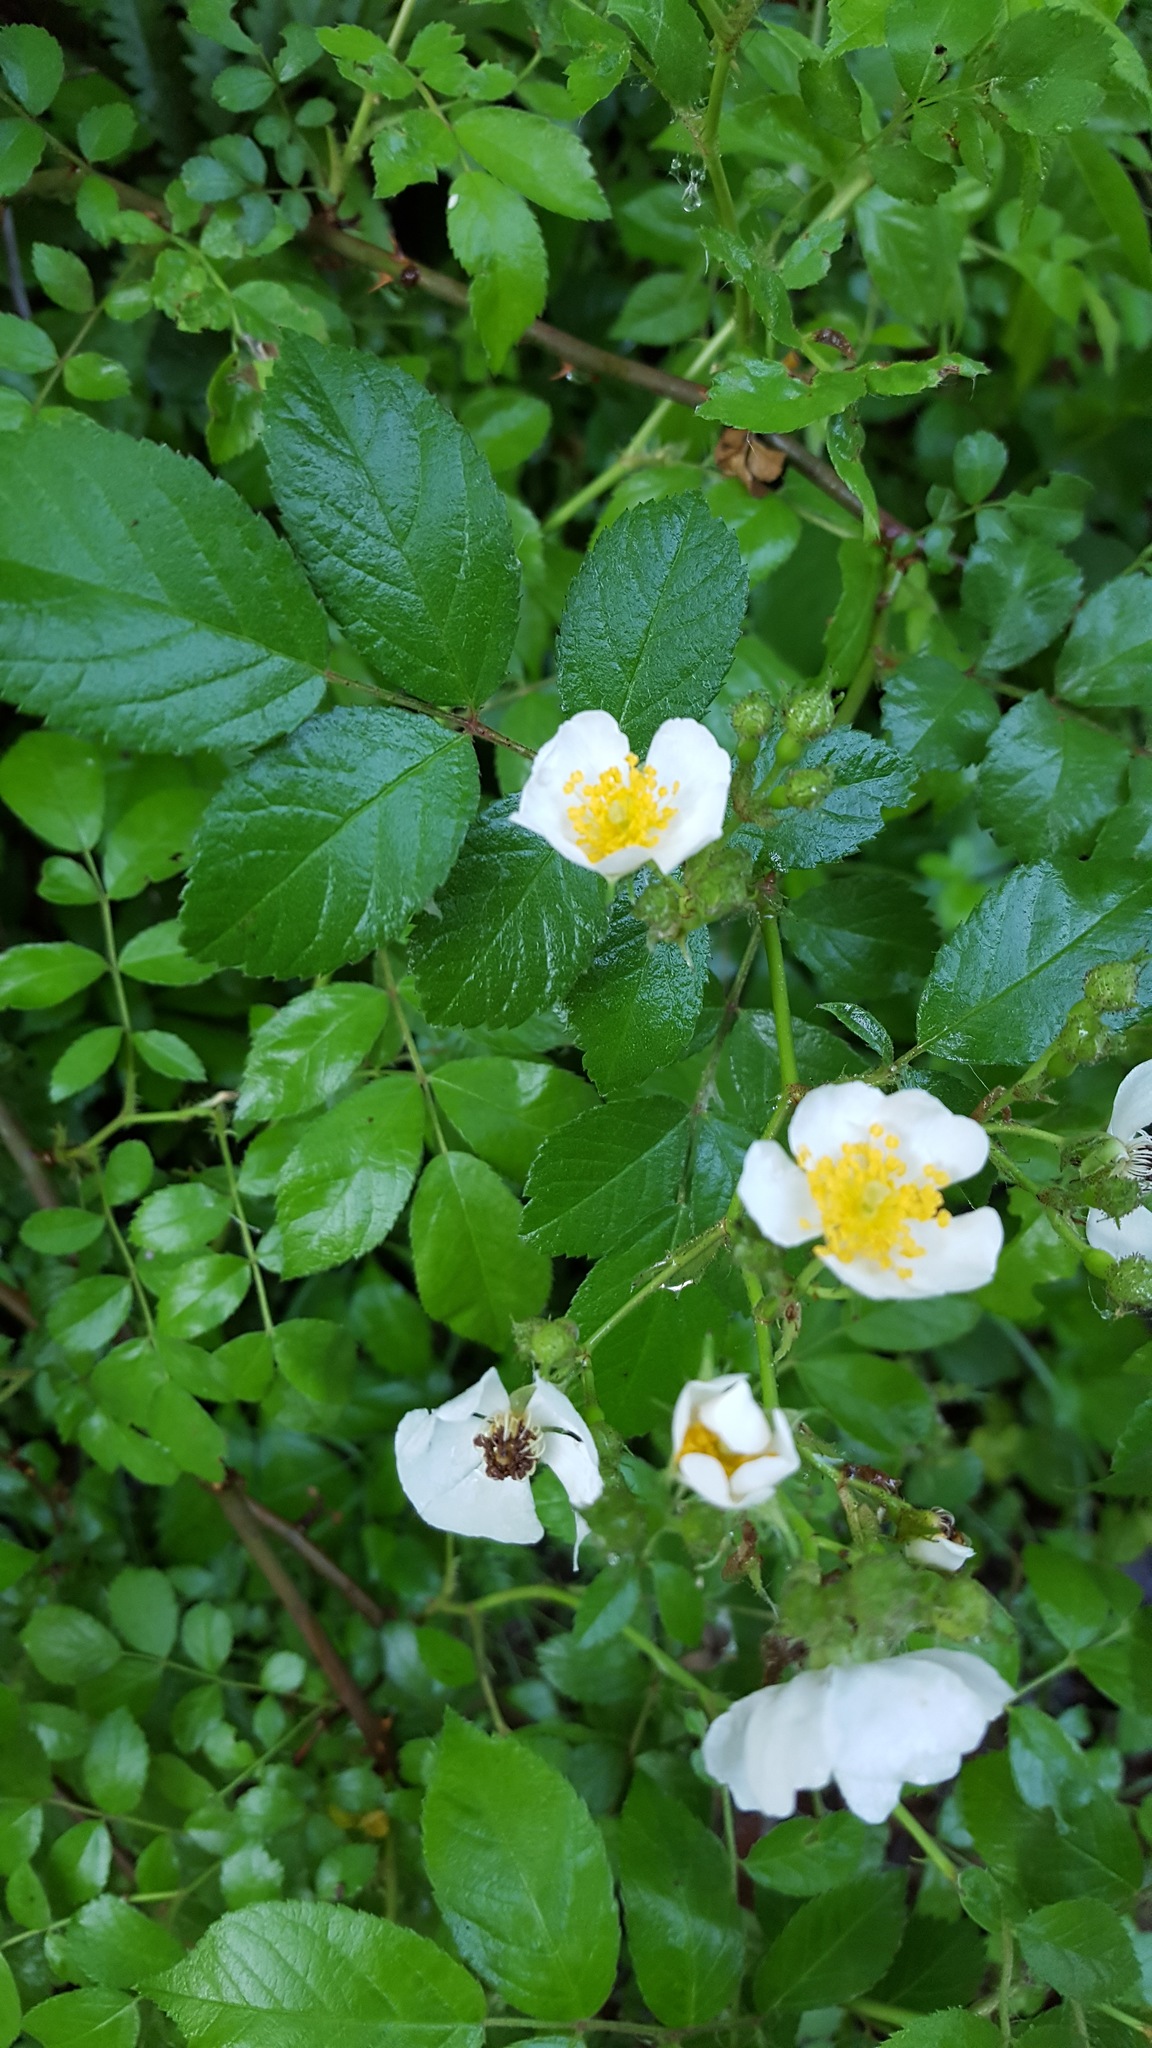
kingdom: Plantae
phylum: Tracheophyta
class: Magnoliopsida
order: Rosales
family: Rosaceae
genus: Rosa
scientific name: Rosa multiflora
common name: Multiflora rose
